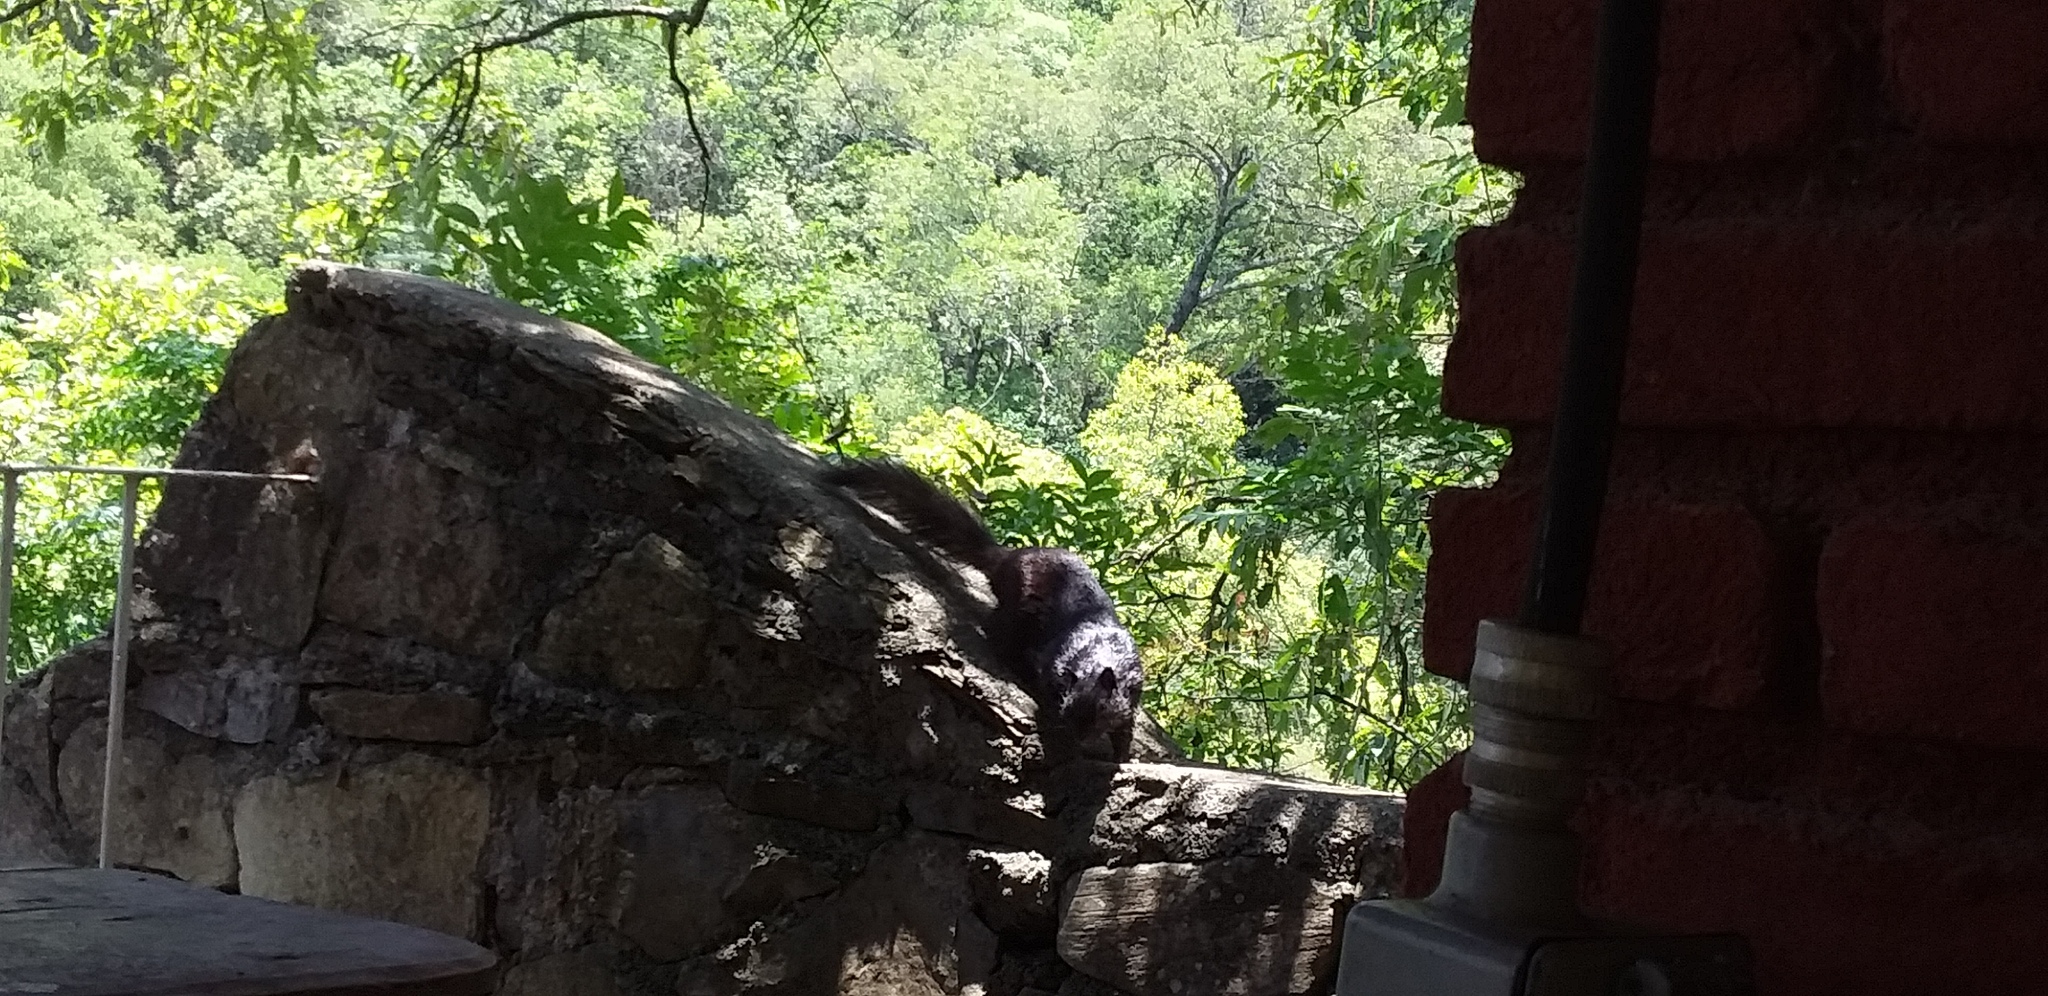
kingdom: Animalia
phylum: Chordata
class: Mammalia
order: Rodentia
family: Sciuridae
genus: Otospermophilus
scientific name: Otospermophilus variegatus
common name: Rock squirrel
